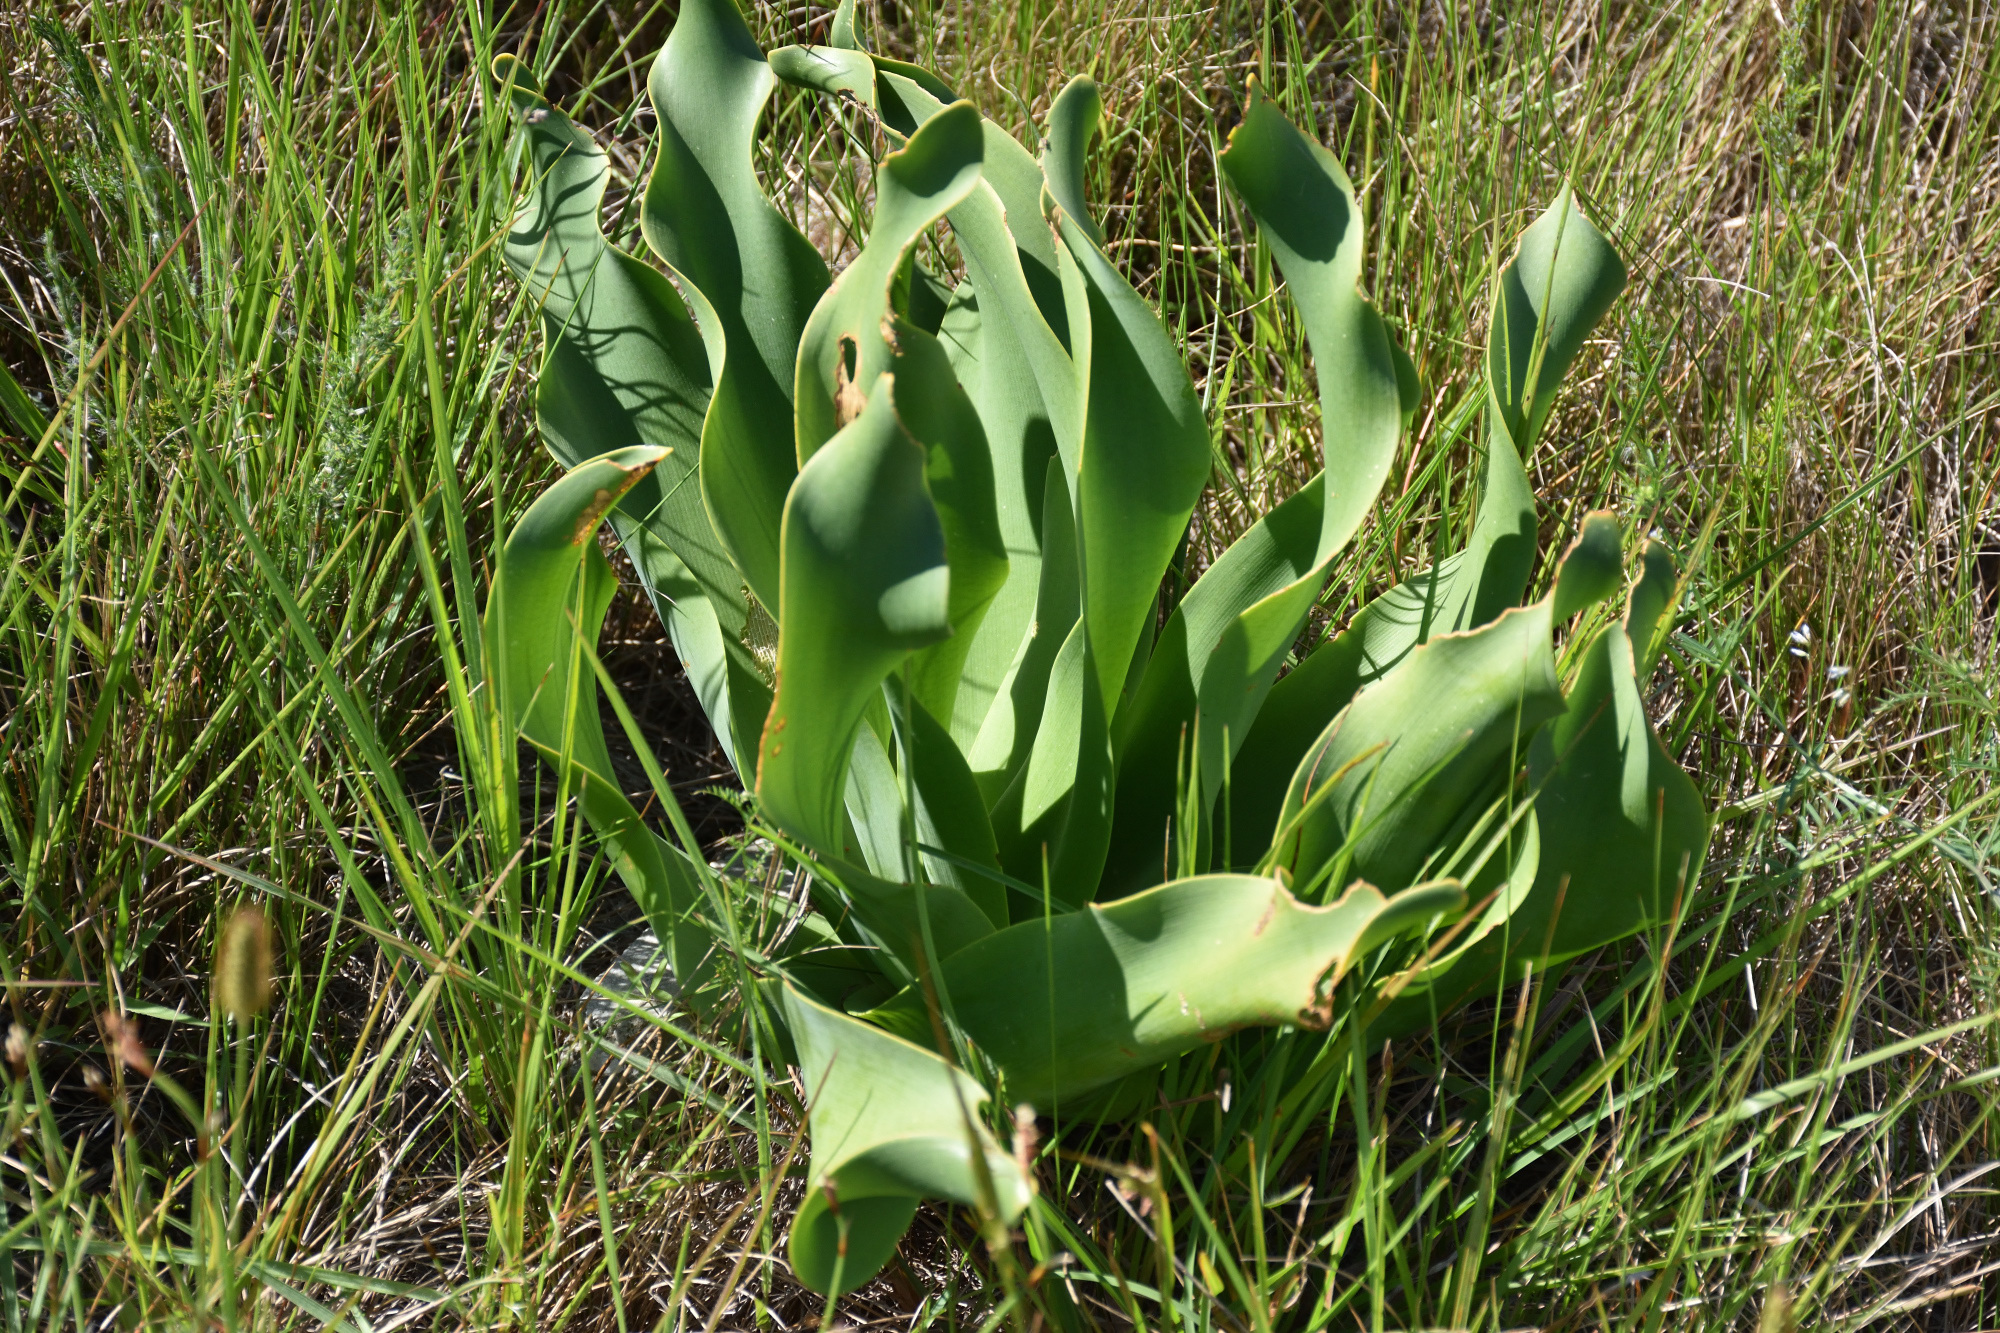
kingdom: Plantae
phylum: Tracheophyta
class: Liliopsida
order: Asparagales
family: Amaryllidaceae
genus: Brunsvigia
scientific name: Brunsvigia litoralis
